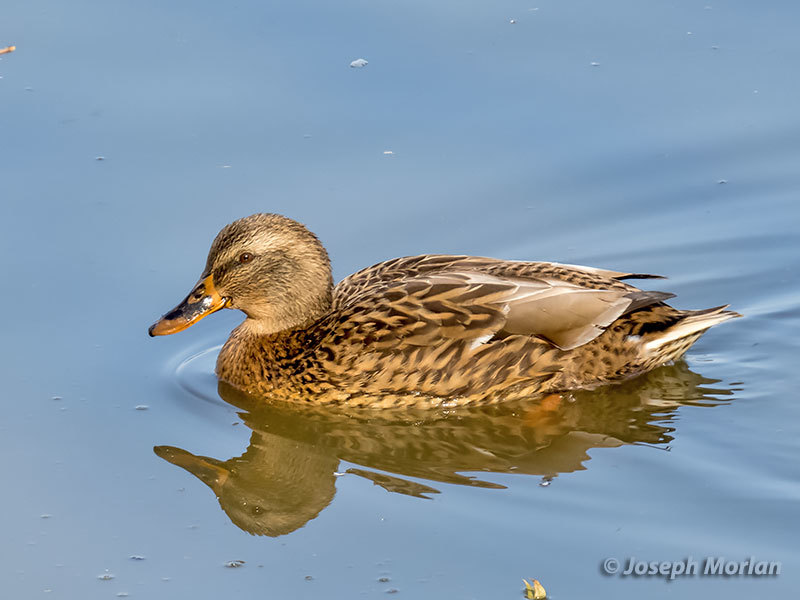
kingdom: Animalia
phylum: Chordata
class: Aves
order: Anseriformes
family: Anatidae
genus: Anas
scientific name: Anas platyrhynchos
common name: Mallard
